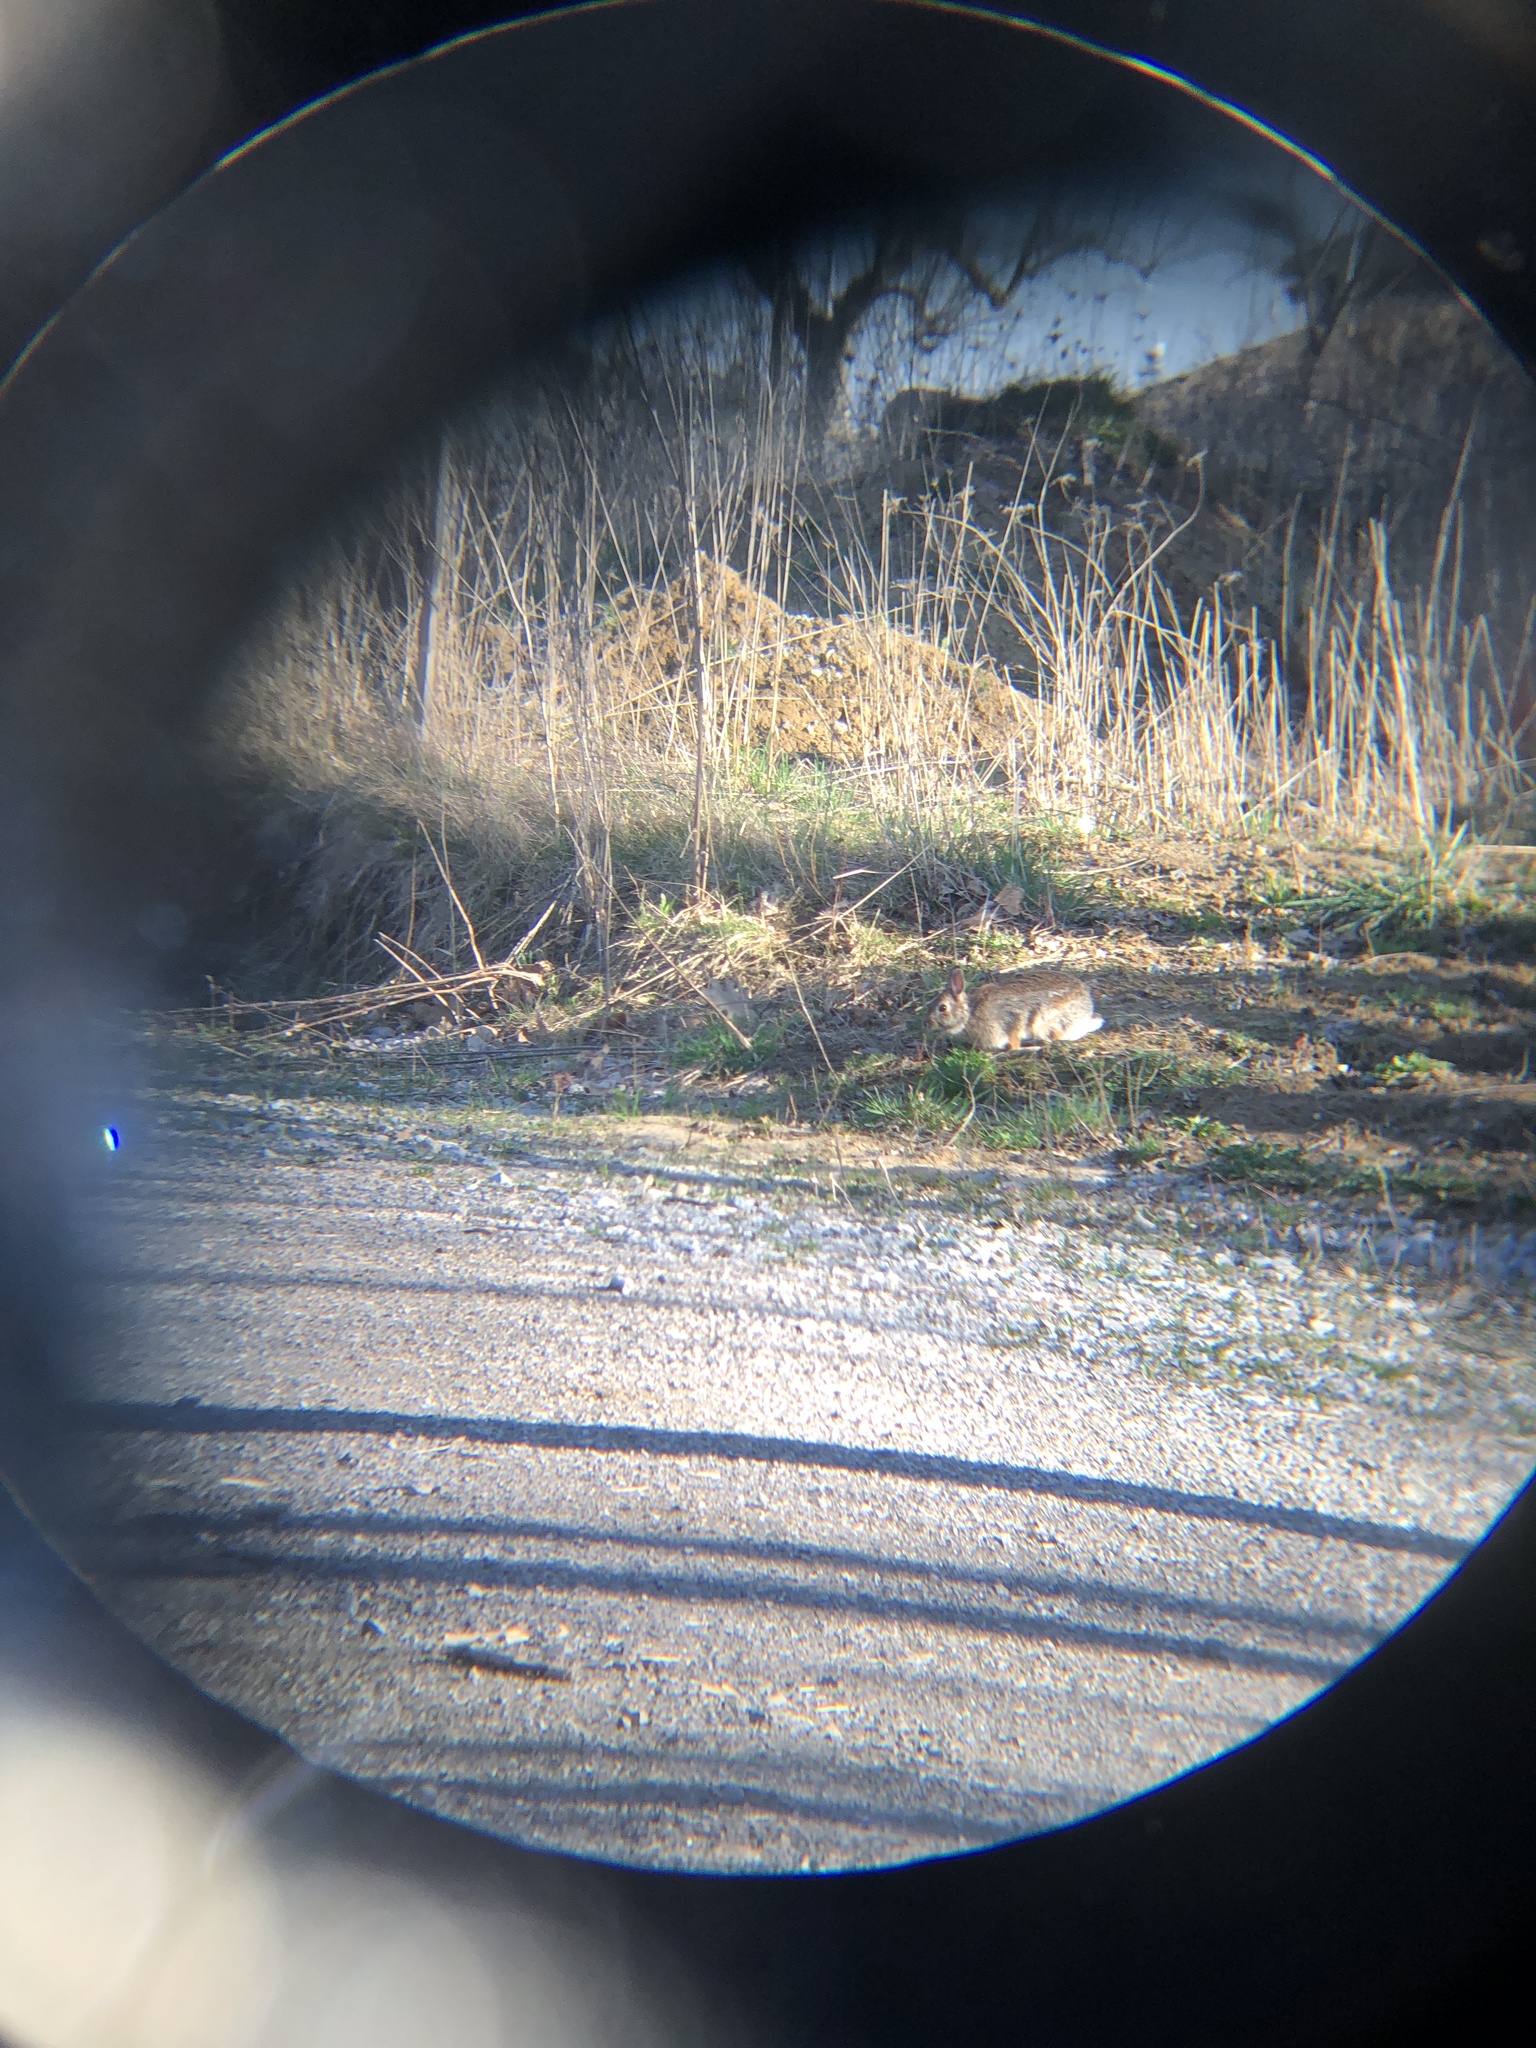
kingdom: Animalia
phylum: Chordata
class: Mammalia
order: Lagomorpha
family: Leporidae
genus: Sylvilagus
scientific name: Sylvilagus floridanus
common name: Eastern cottontail
